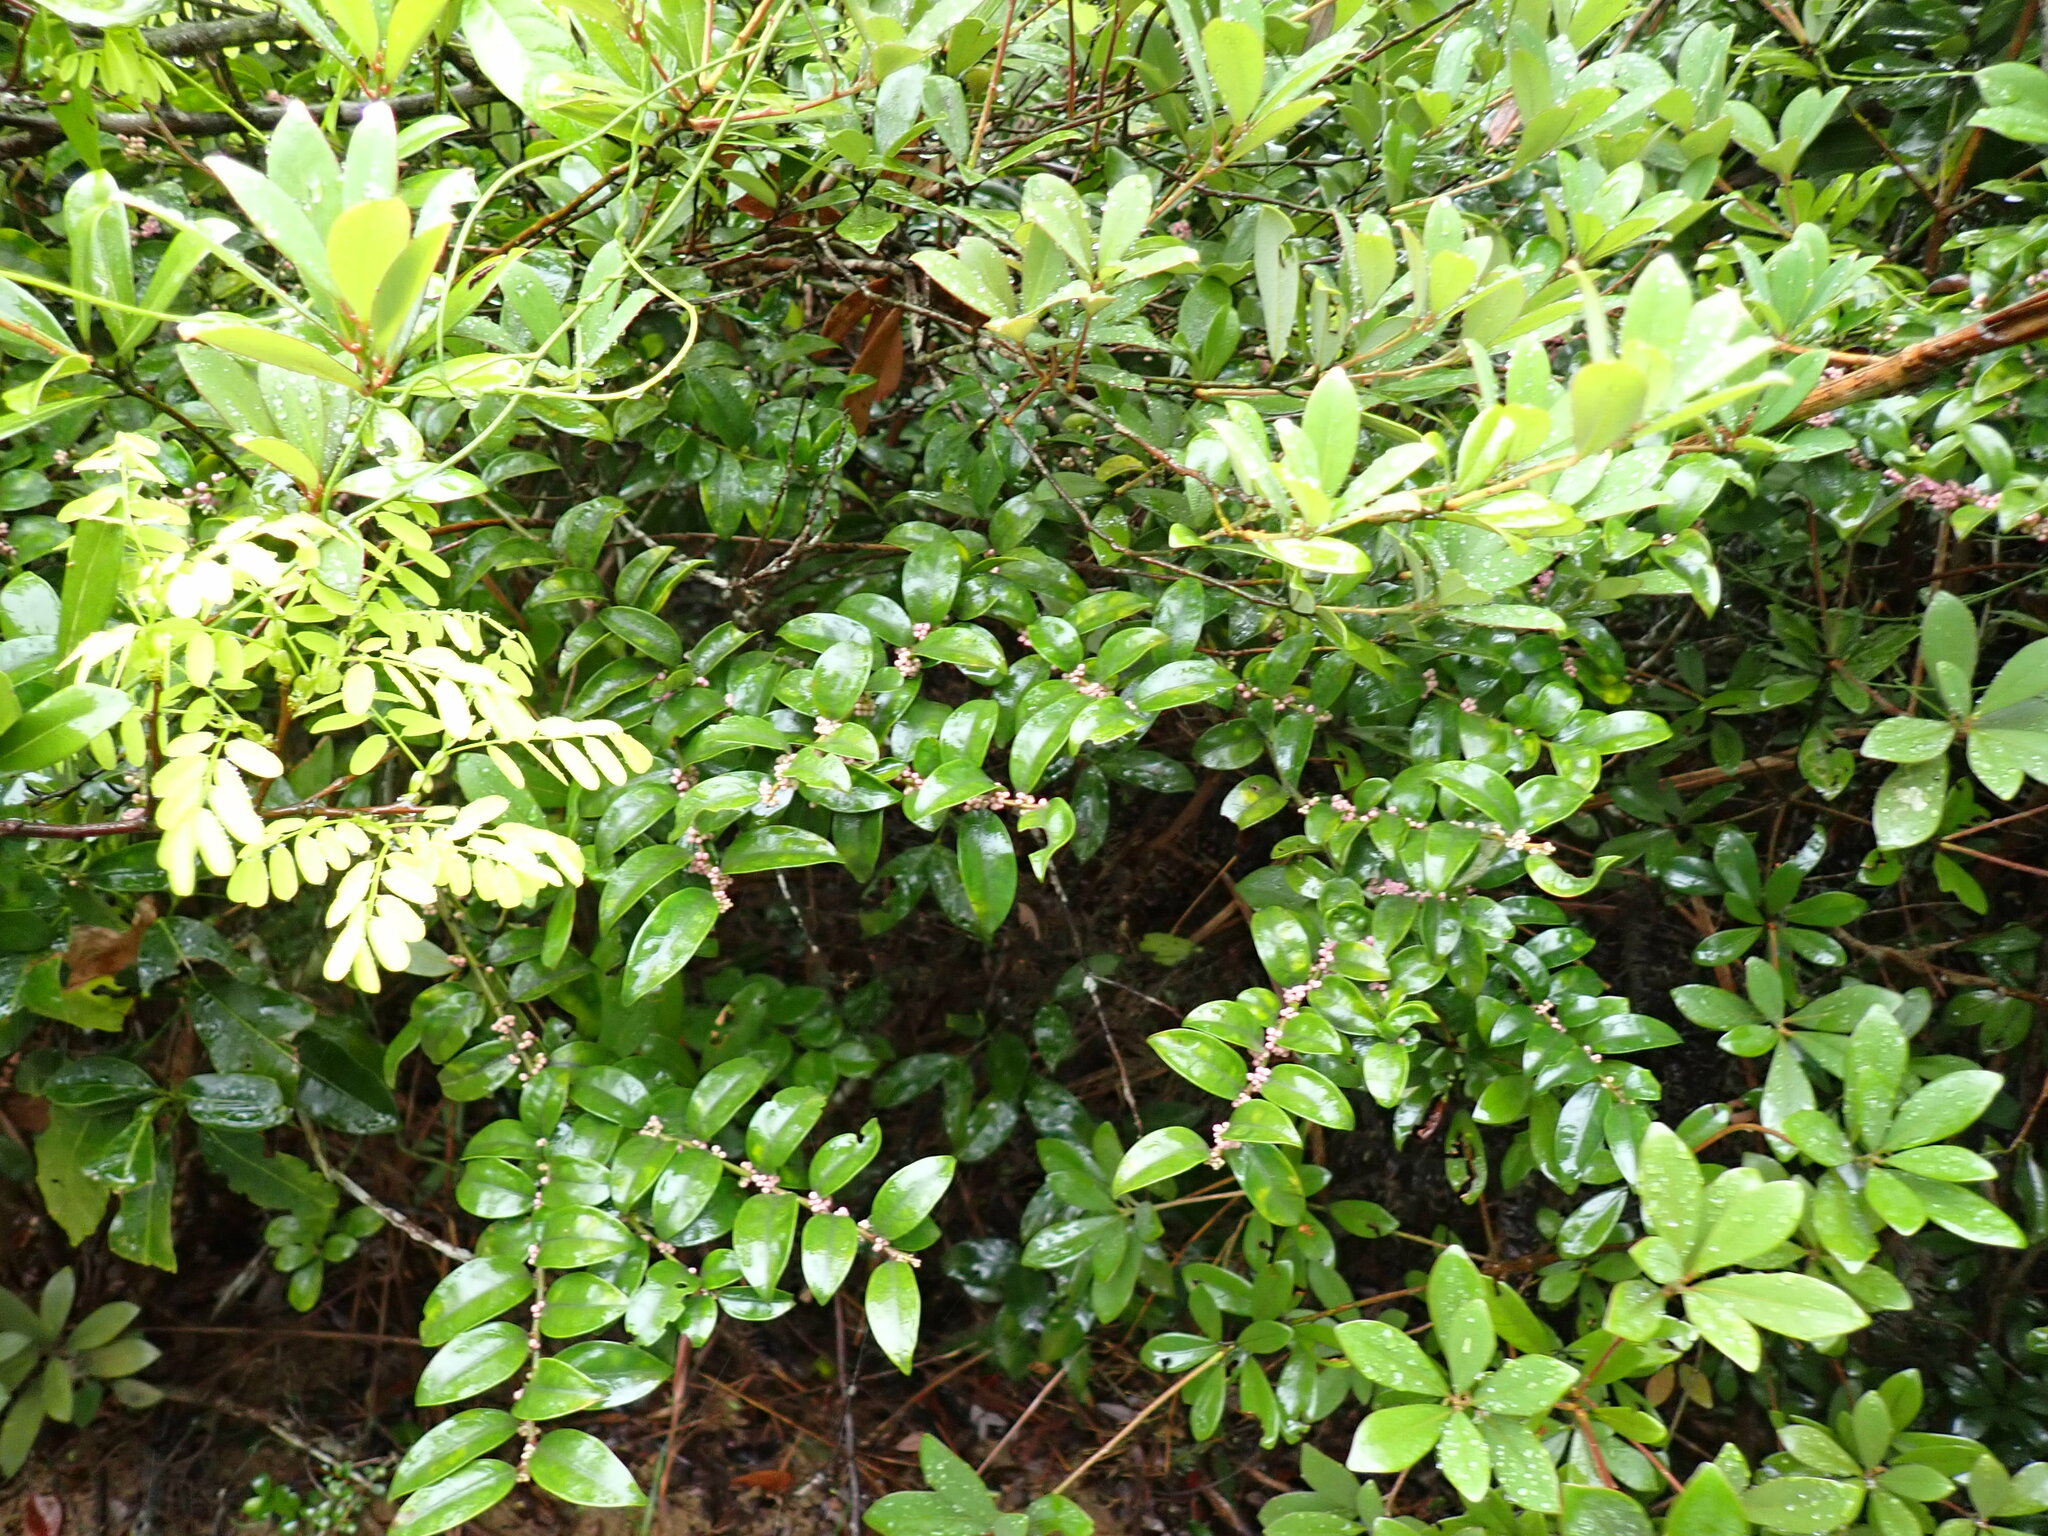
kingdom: Plantae
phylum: Tracheophyta
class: Magnoliopsida
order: Aquifoliales
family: Aquifoliaceae
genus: Ilex
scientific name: Ilex pubescens
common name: Pubescent holly
